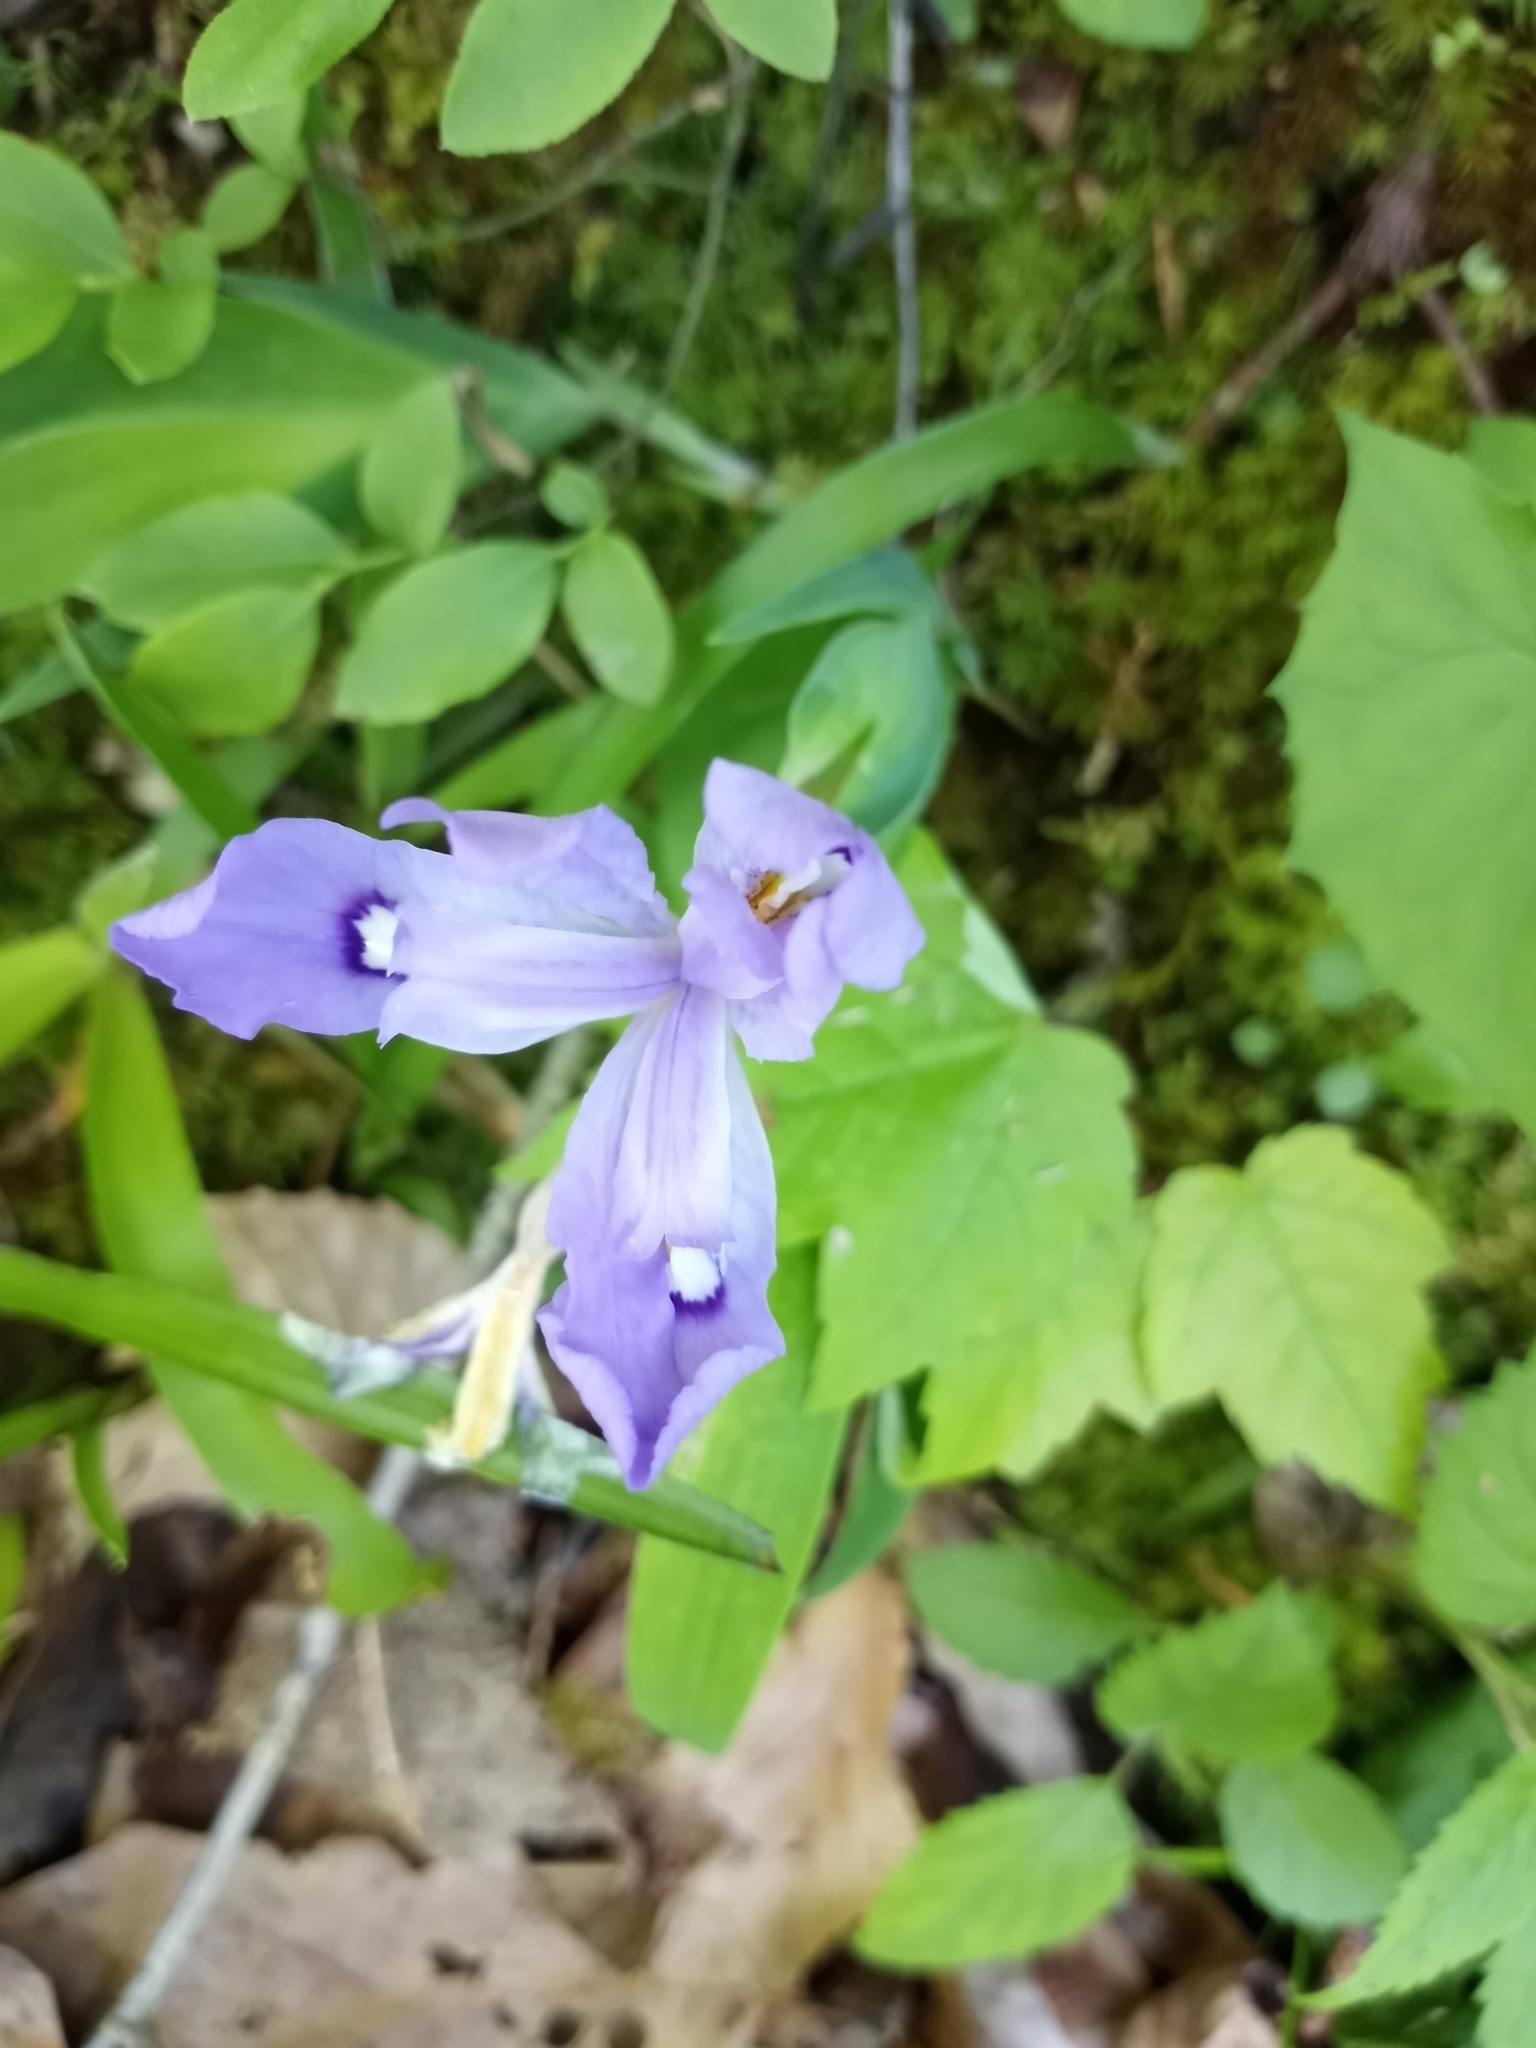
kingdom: Plantae
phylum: Tracheophyta
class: Liliopsida
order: Asparagales
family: Iridaceae
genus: Iris
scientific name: Iris cristata
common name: Crested iris
